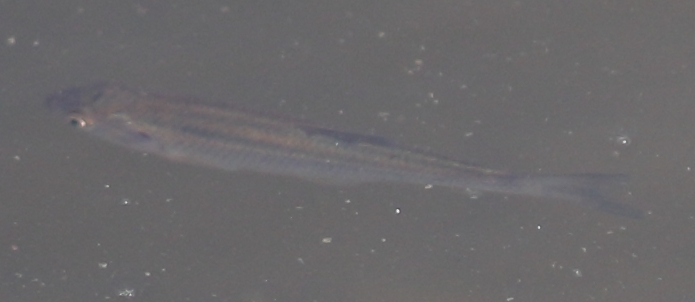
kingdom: Animalia
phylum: Chordata
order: Cypriniformes
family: Cyprinidae
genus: Alburnus
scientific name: Alburnus alburnus
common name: Bleak
